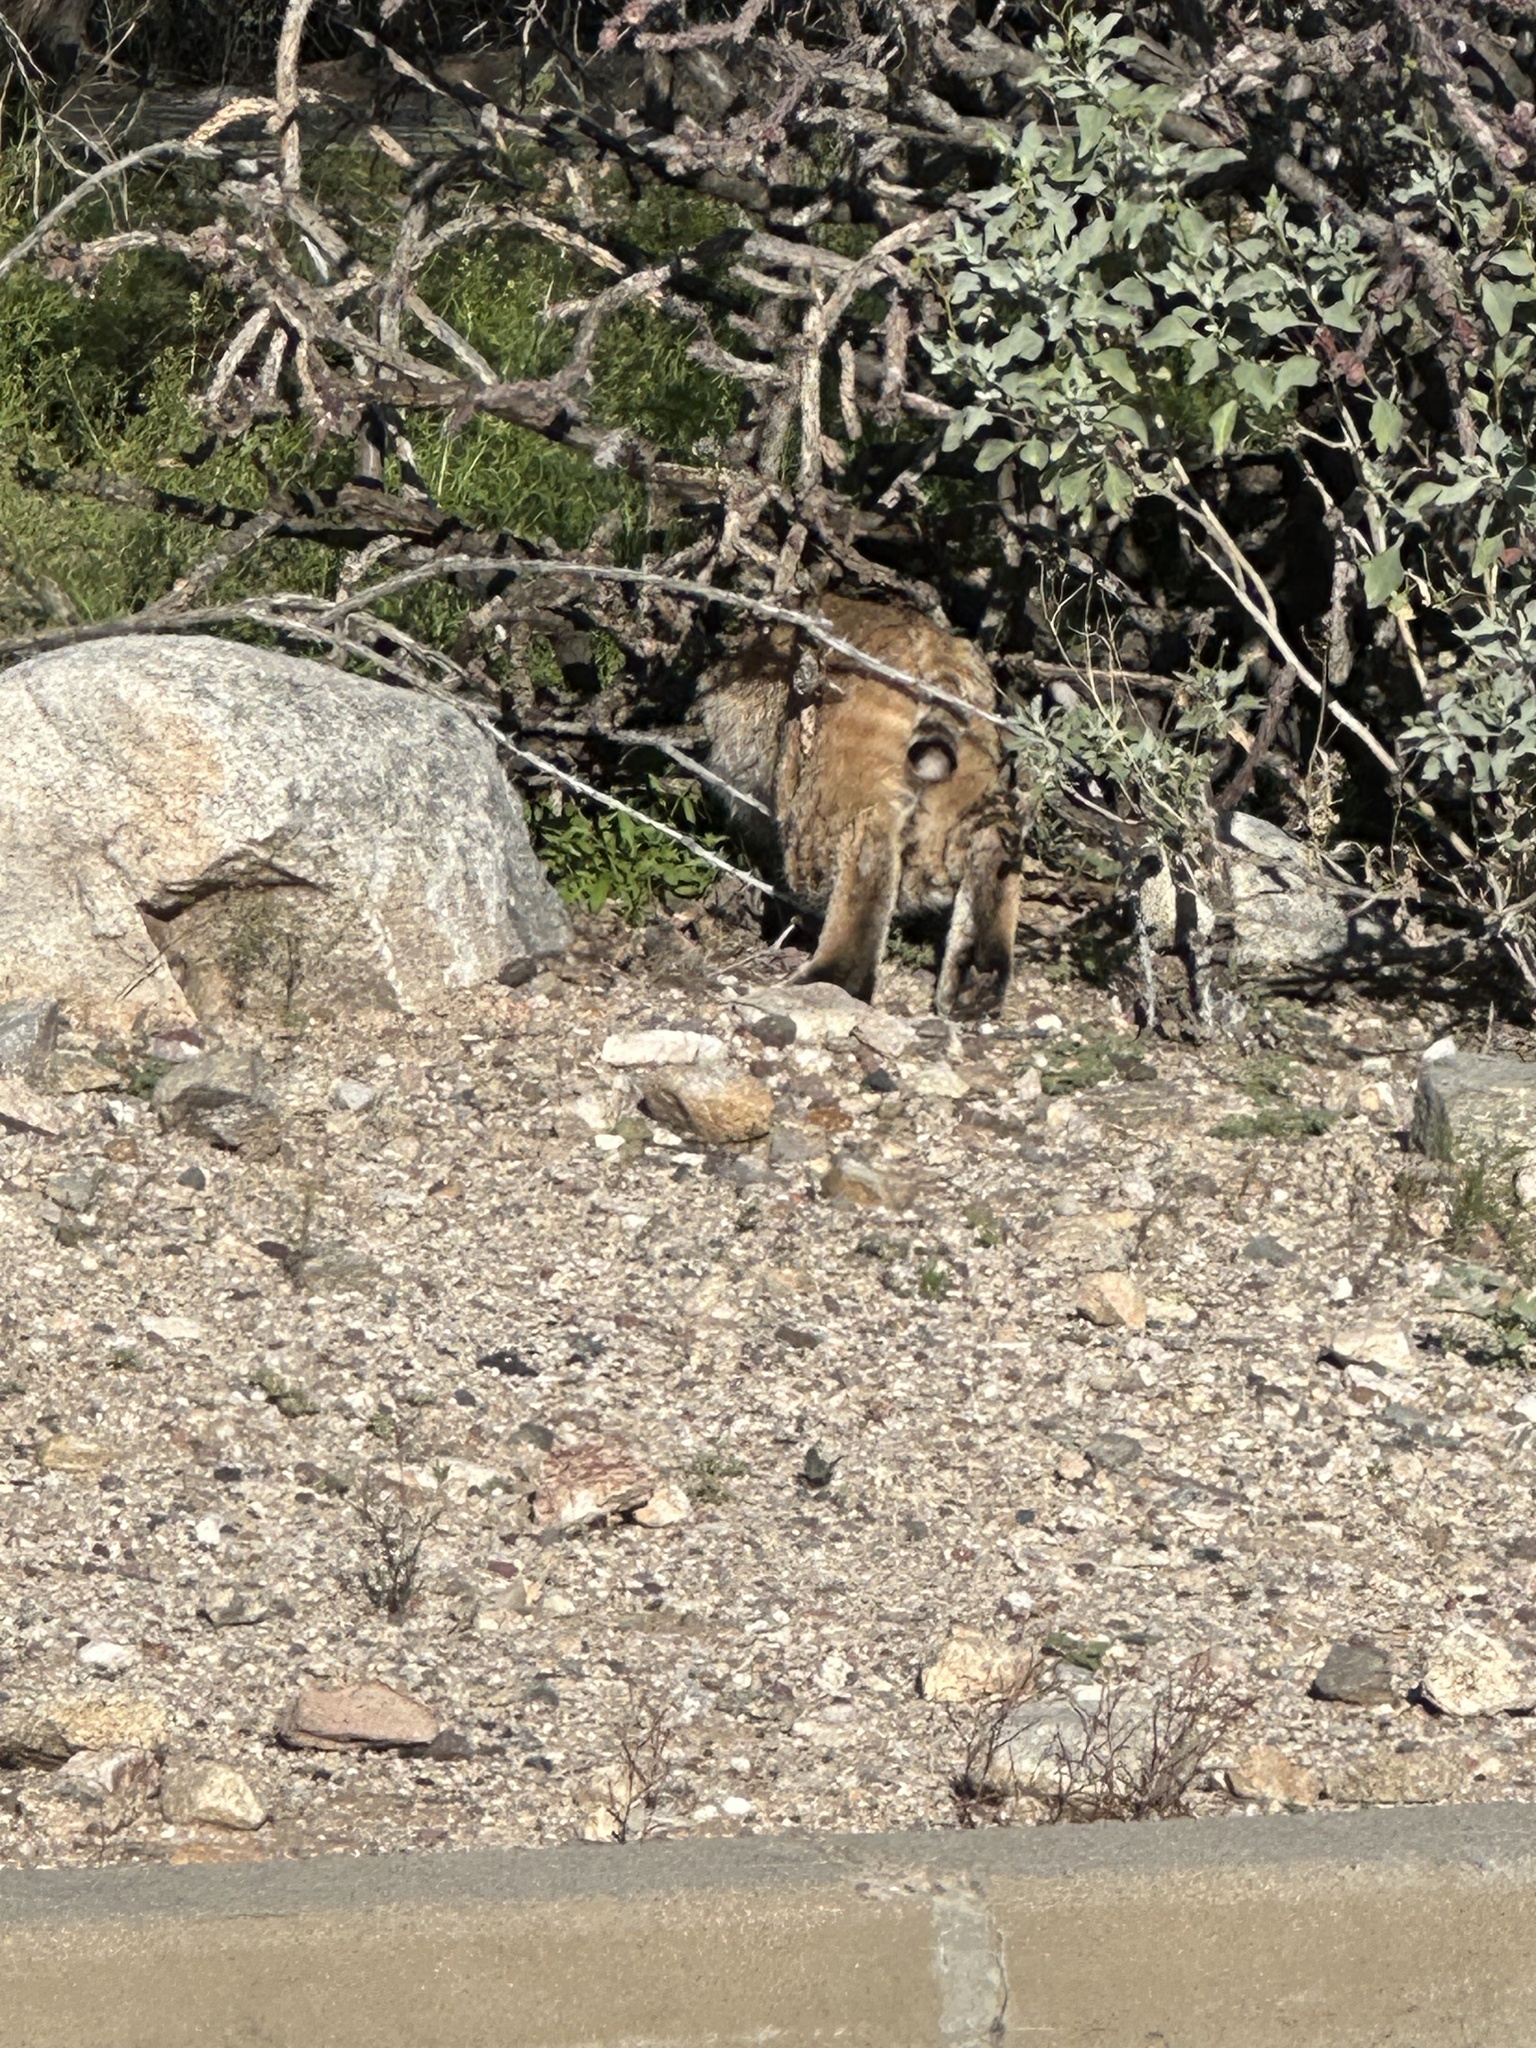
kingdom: Animalia
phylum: Chordata
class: Mammalia
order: Carnivora
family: Felidae
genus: Lynx
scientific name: Lynx rufus
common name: Bobcat
